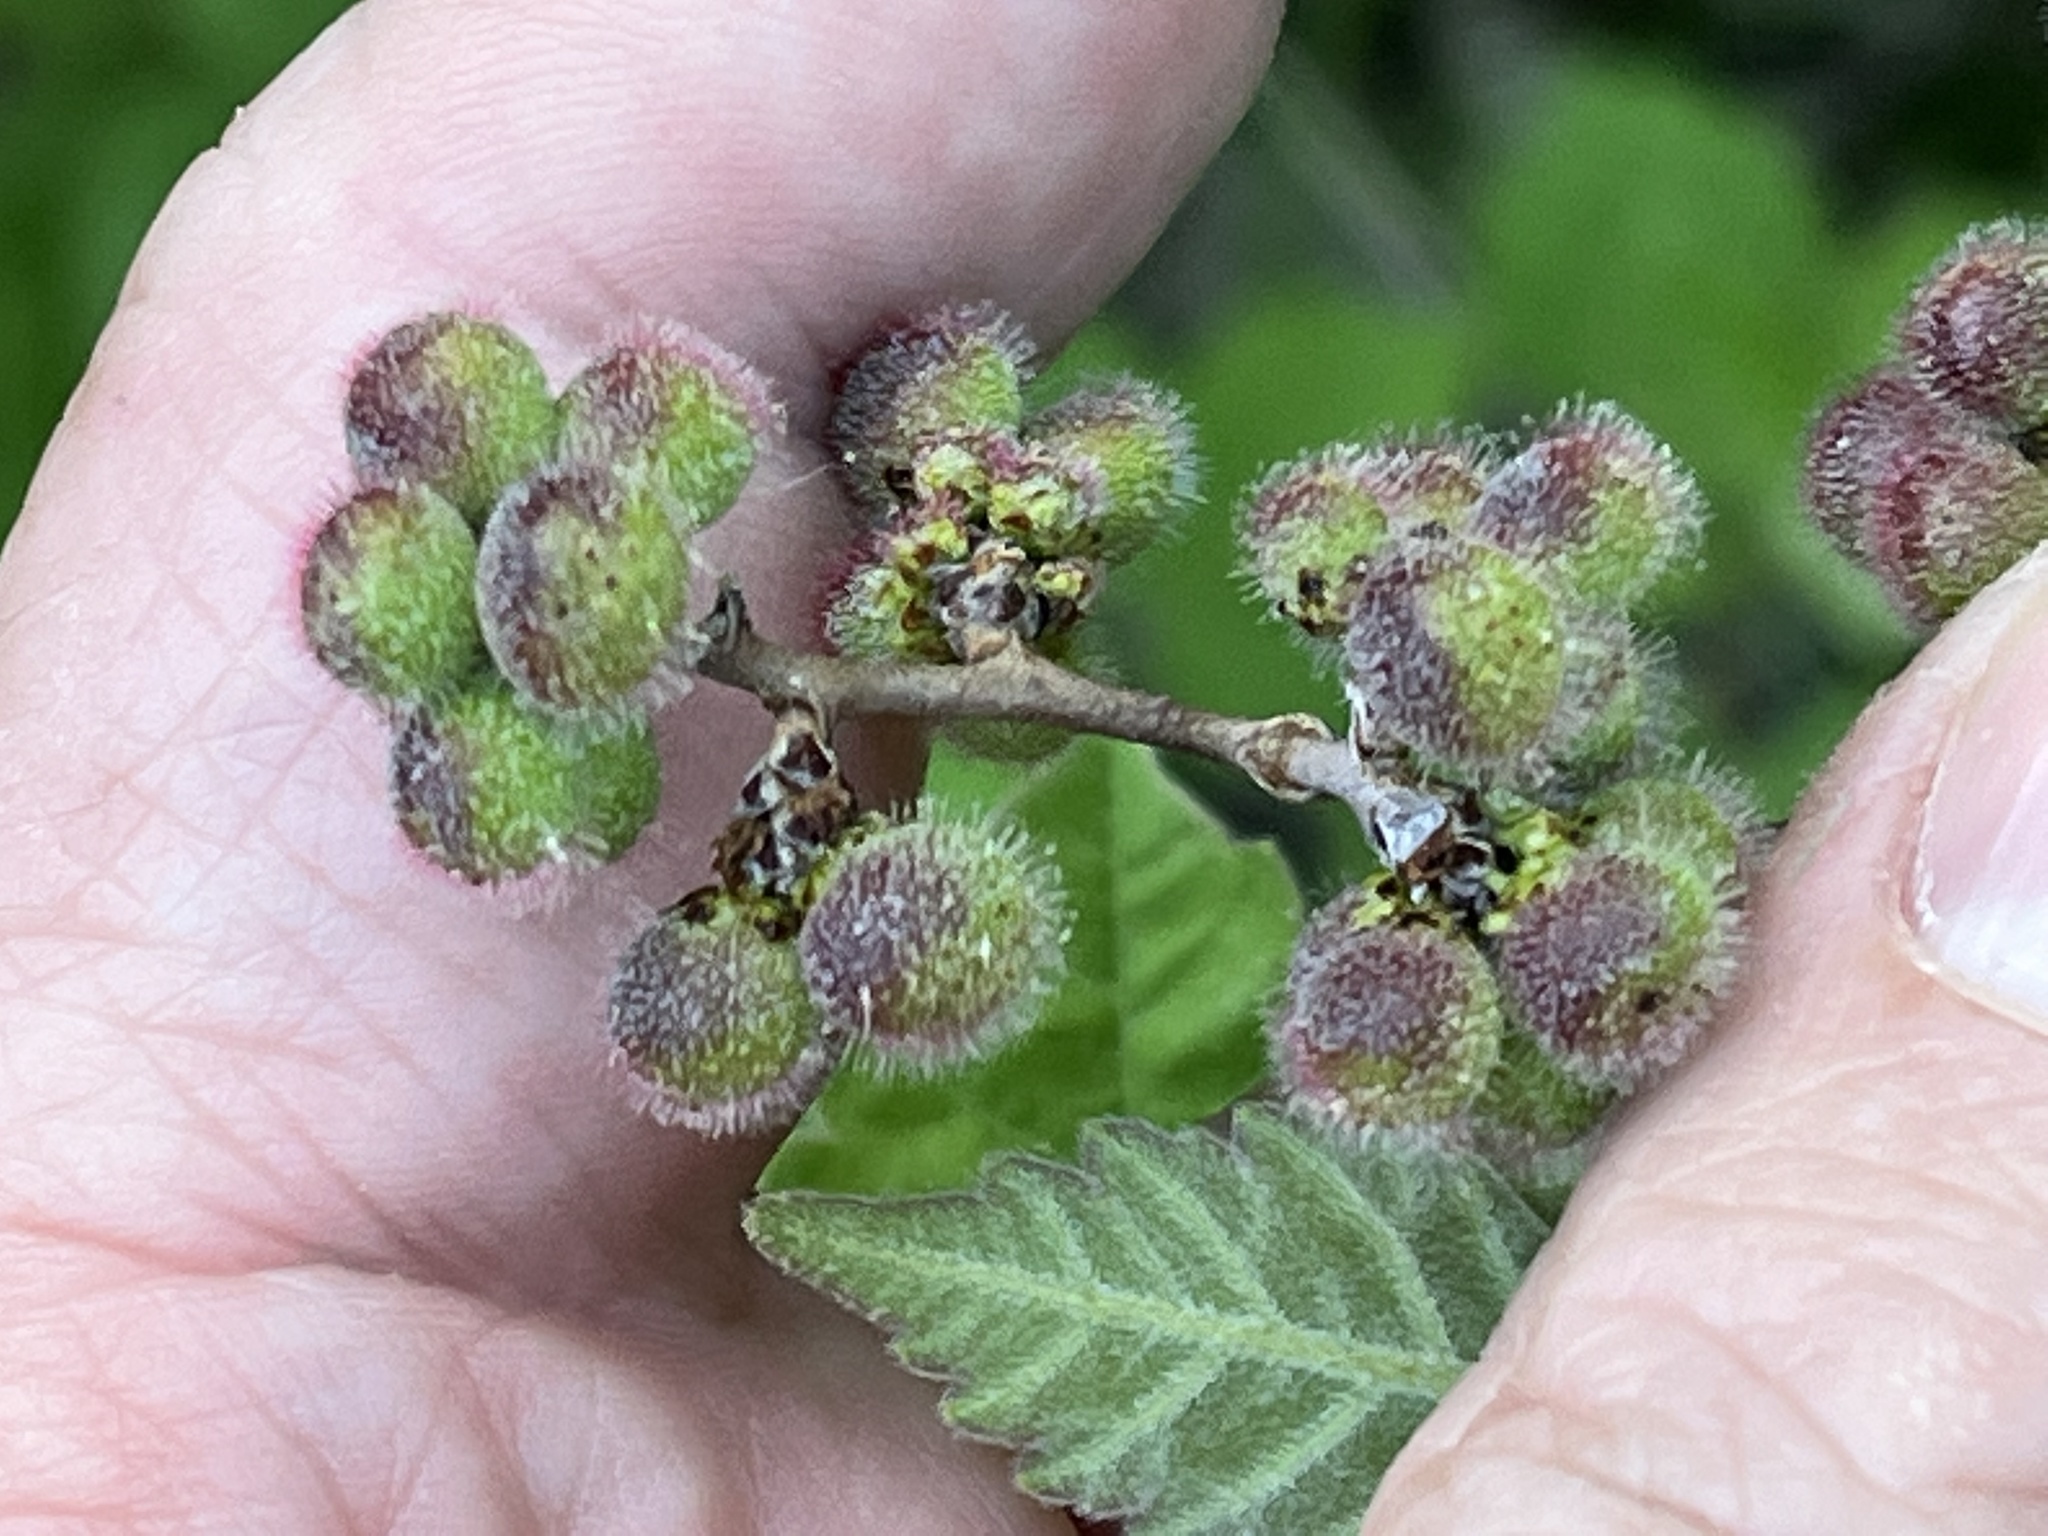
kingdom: Plantae
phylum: Tracheophyta
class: Magnoliopsida
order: Sapindales
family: Anacardiaceae
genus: Rhus
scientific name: Rhus aromatica
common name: Aromatic sumac
